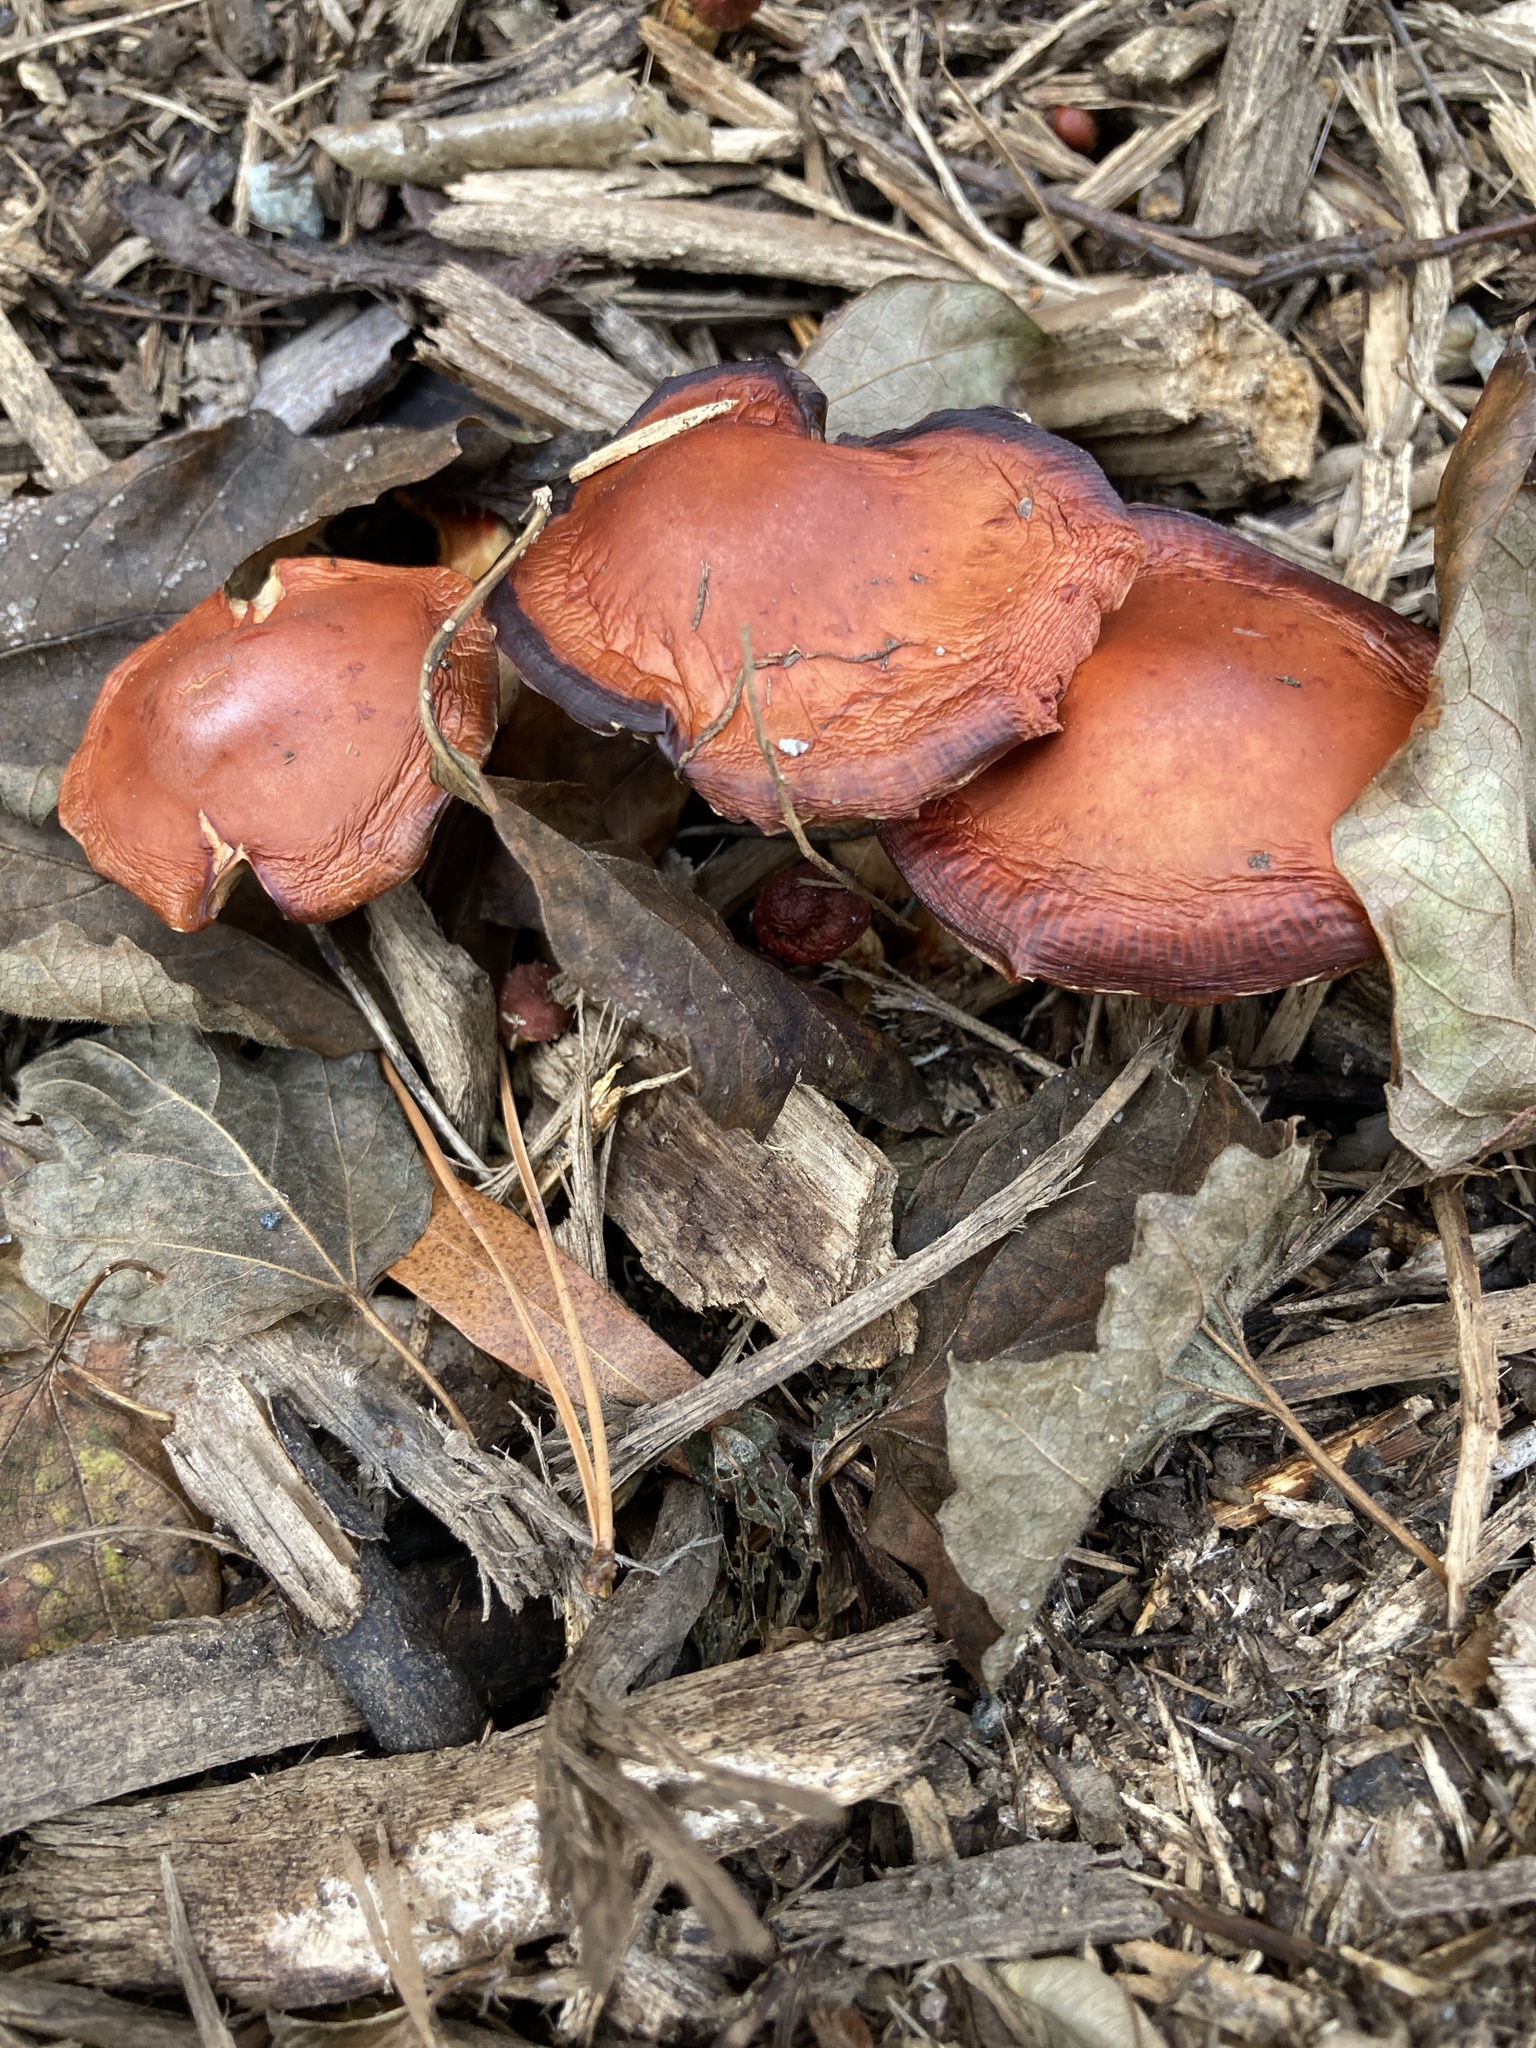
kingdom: Fungi
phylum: Basidiomycota
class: Agaricomycetes
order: Agaricales
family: Strophariaceae
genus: Leratiomyces
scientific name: Leratiomyces ceres
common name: Redlead roundhead
